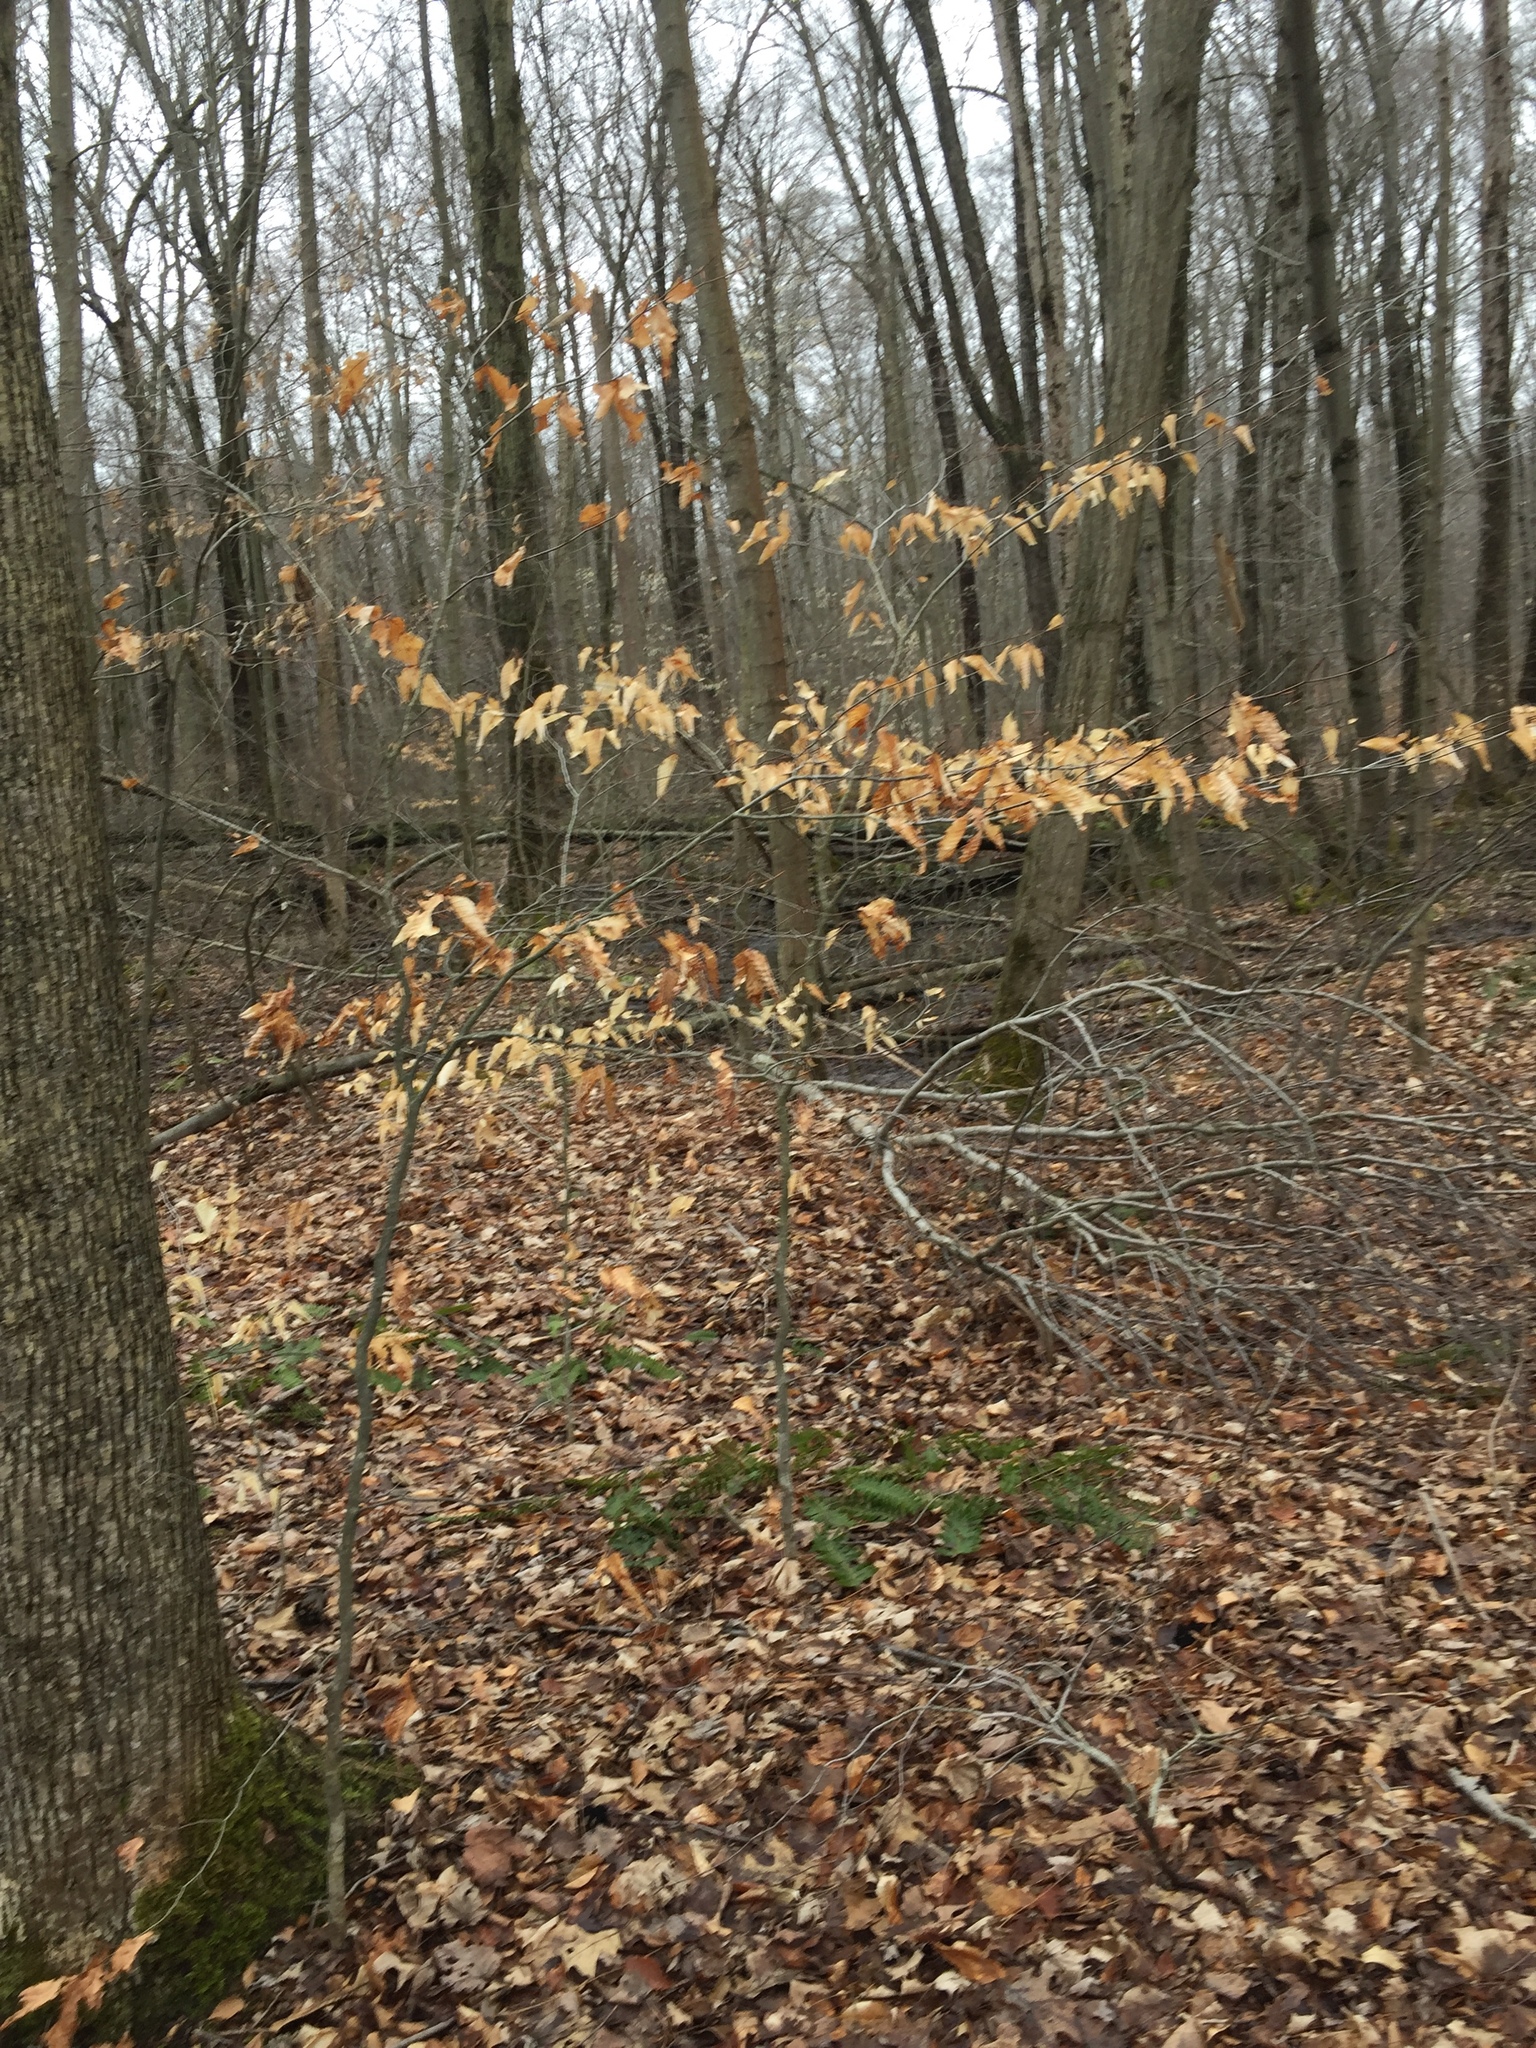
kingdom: Plantae
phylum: Tracheophyta
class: Magnoliopsida
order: Fagales
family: Fagaceae
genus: Fagus
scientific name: Fagus grandifolia
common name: American beech
